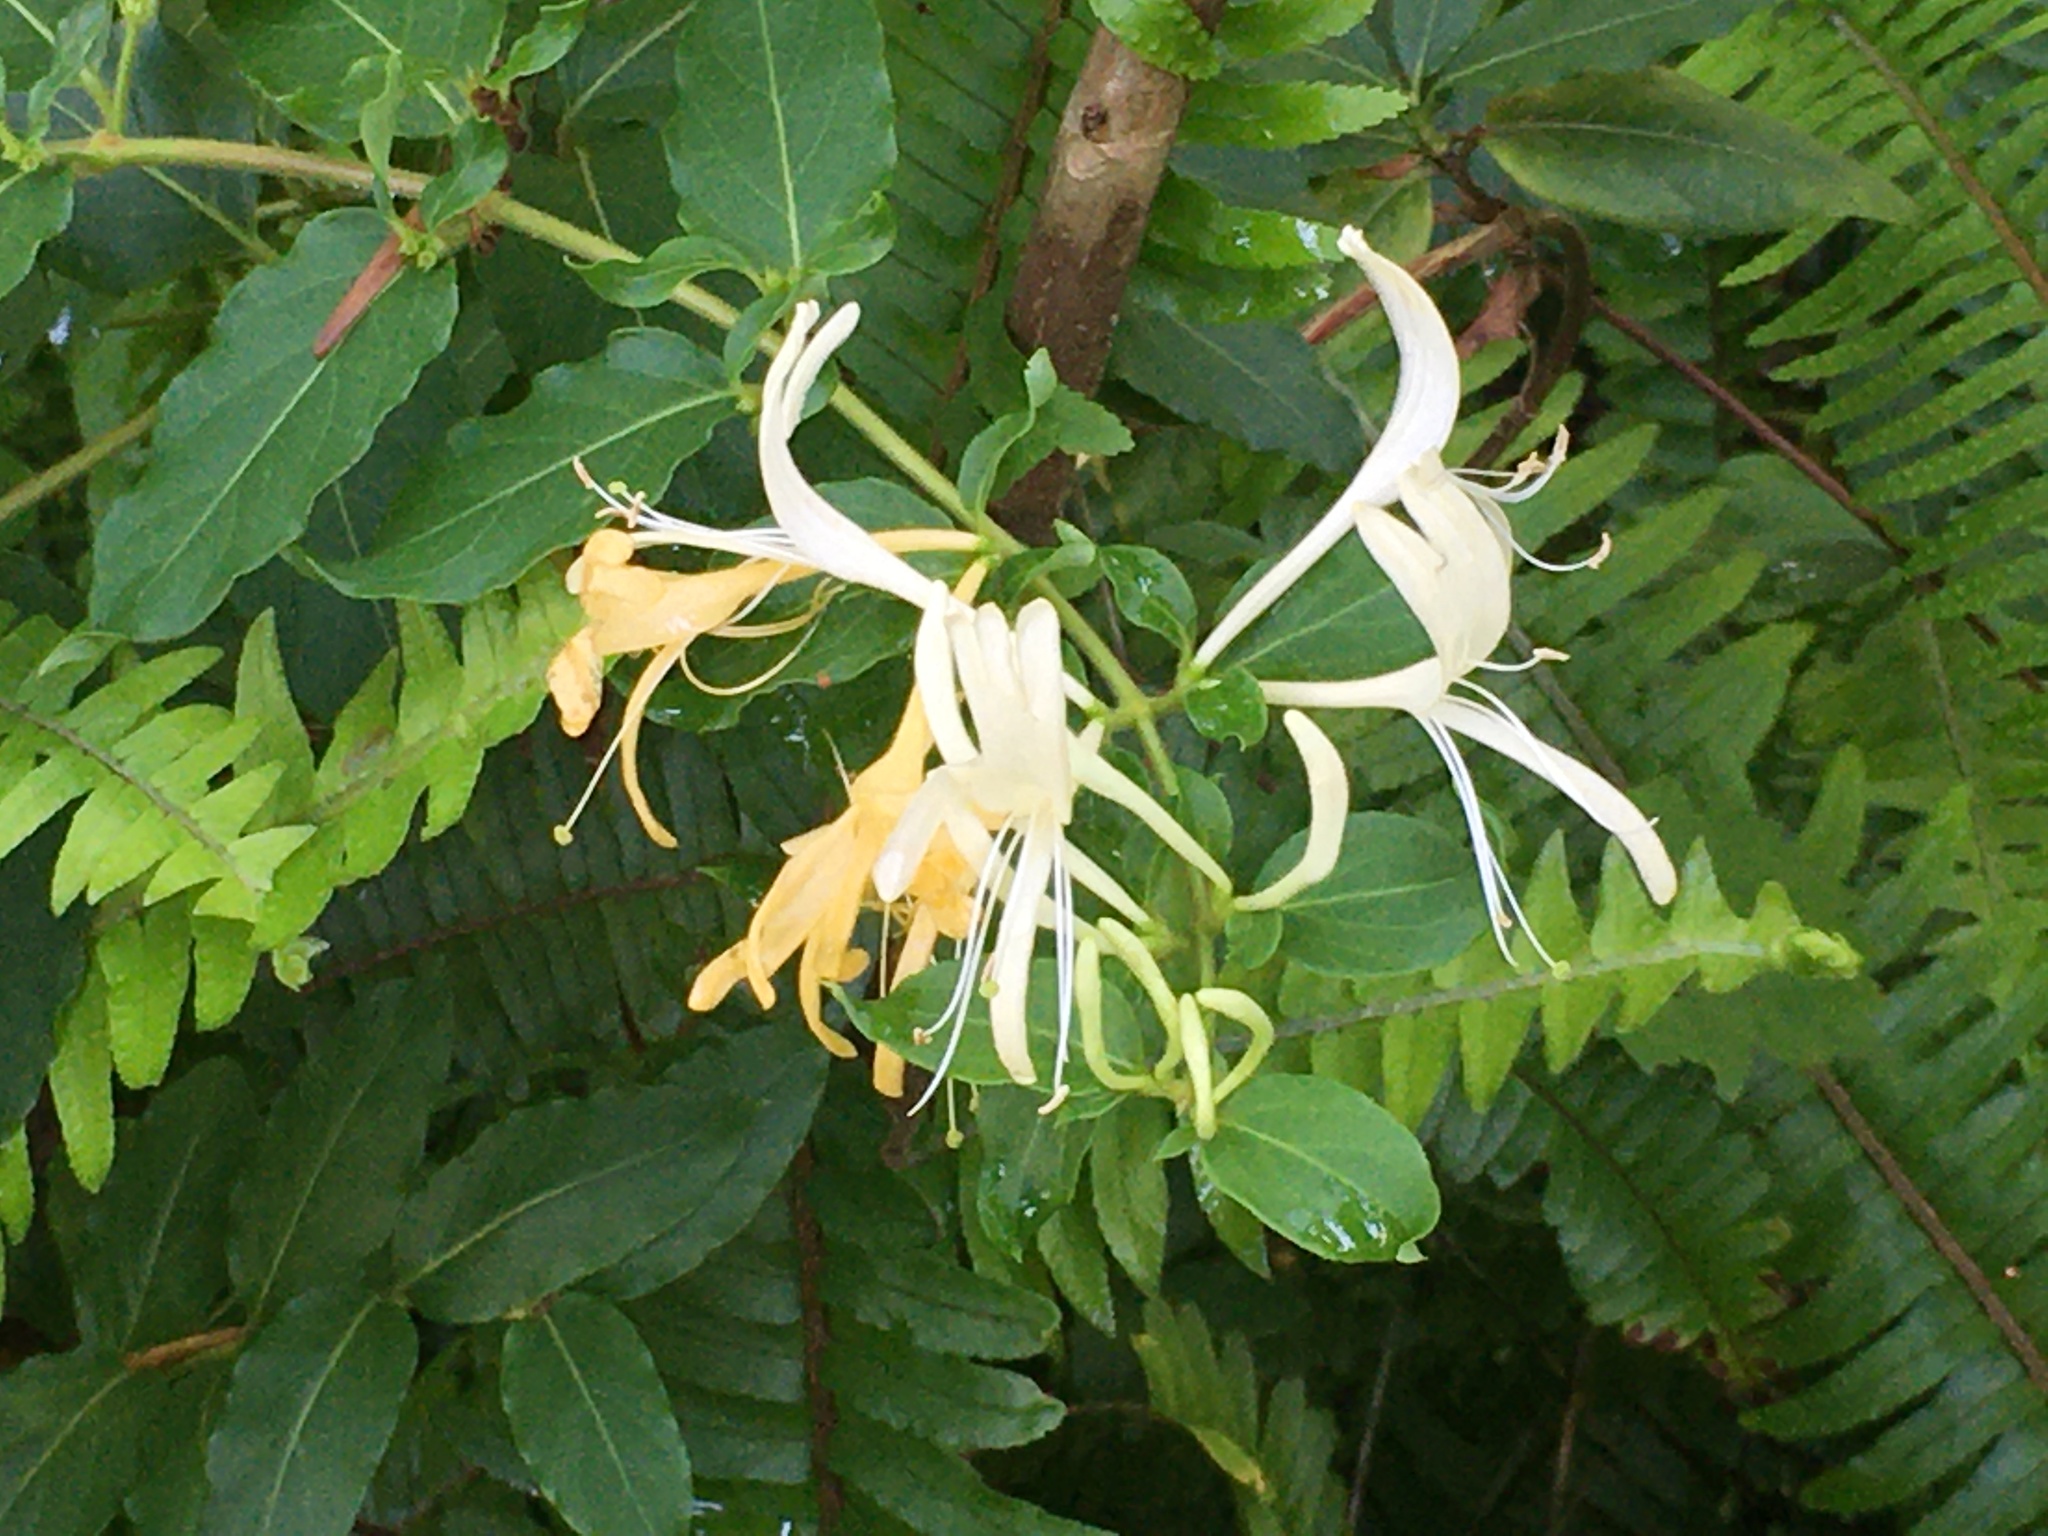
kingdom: Plantae
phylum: Tracheophyta
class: Magnoliopsida
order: Dipsacales
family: Caprifoliaceae
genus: Lonicera
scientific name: Lonicera japonica
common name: Japanese honeysuckle
